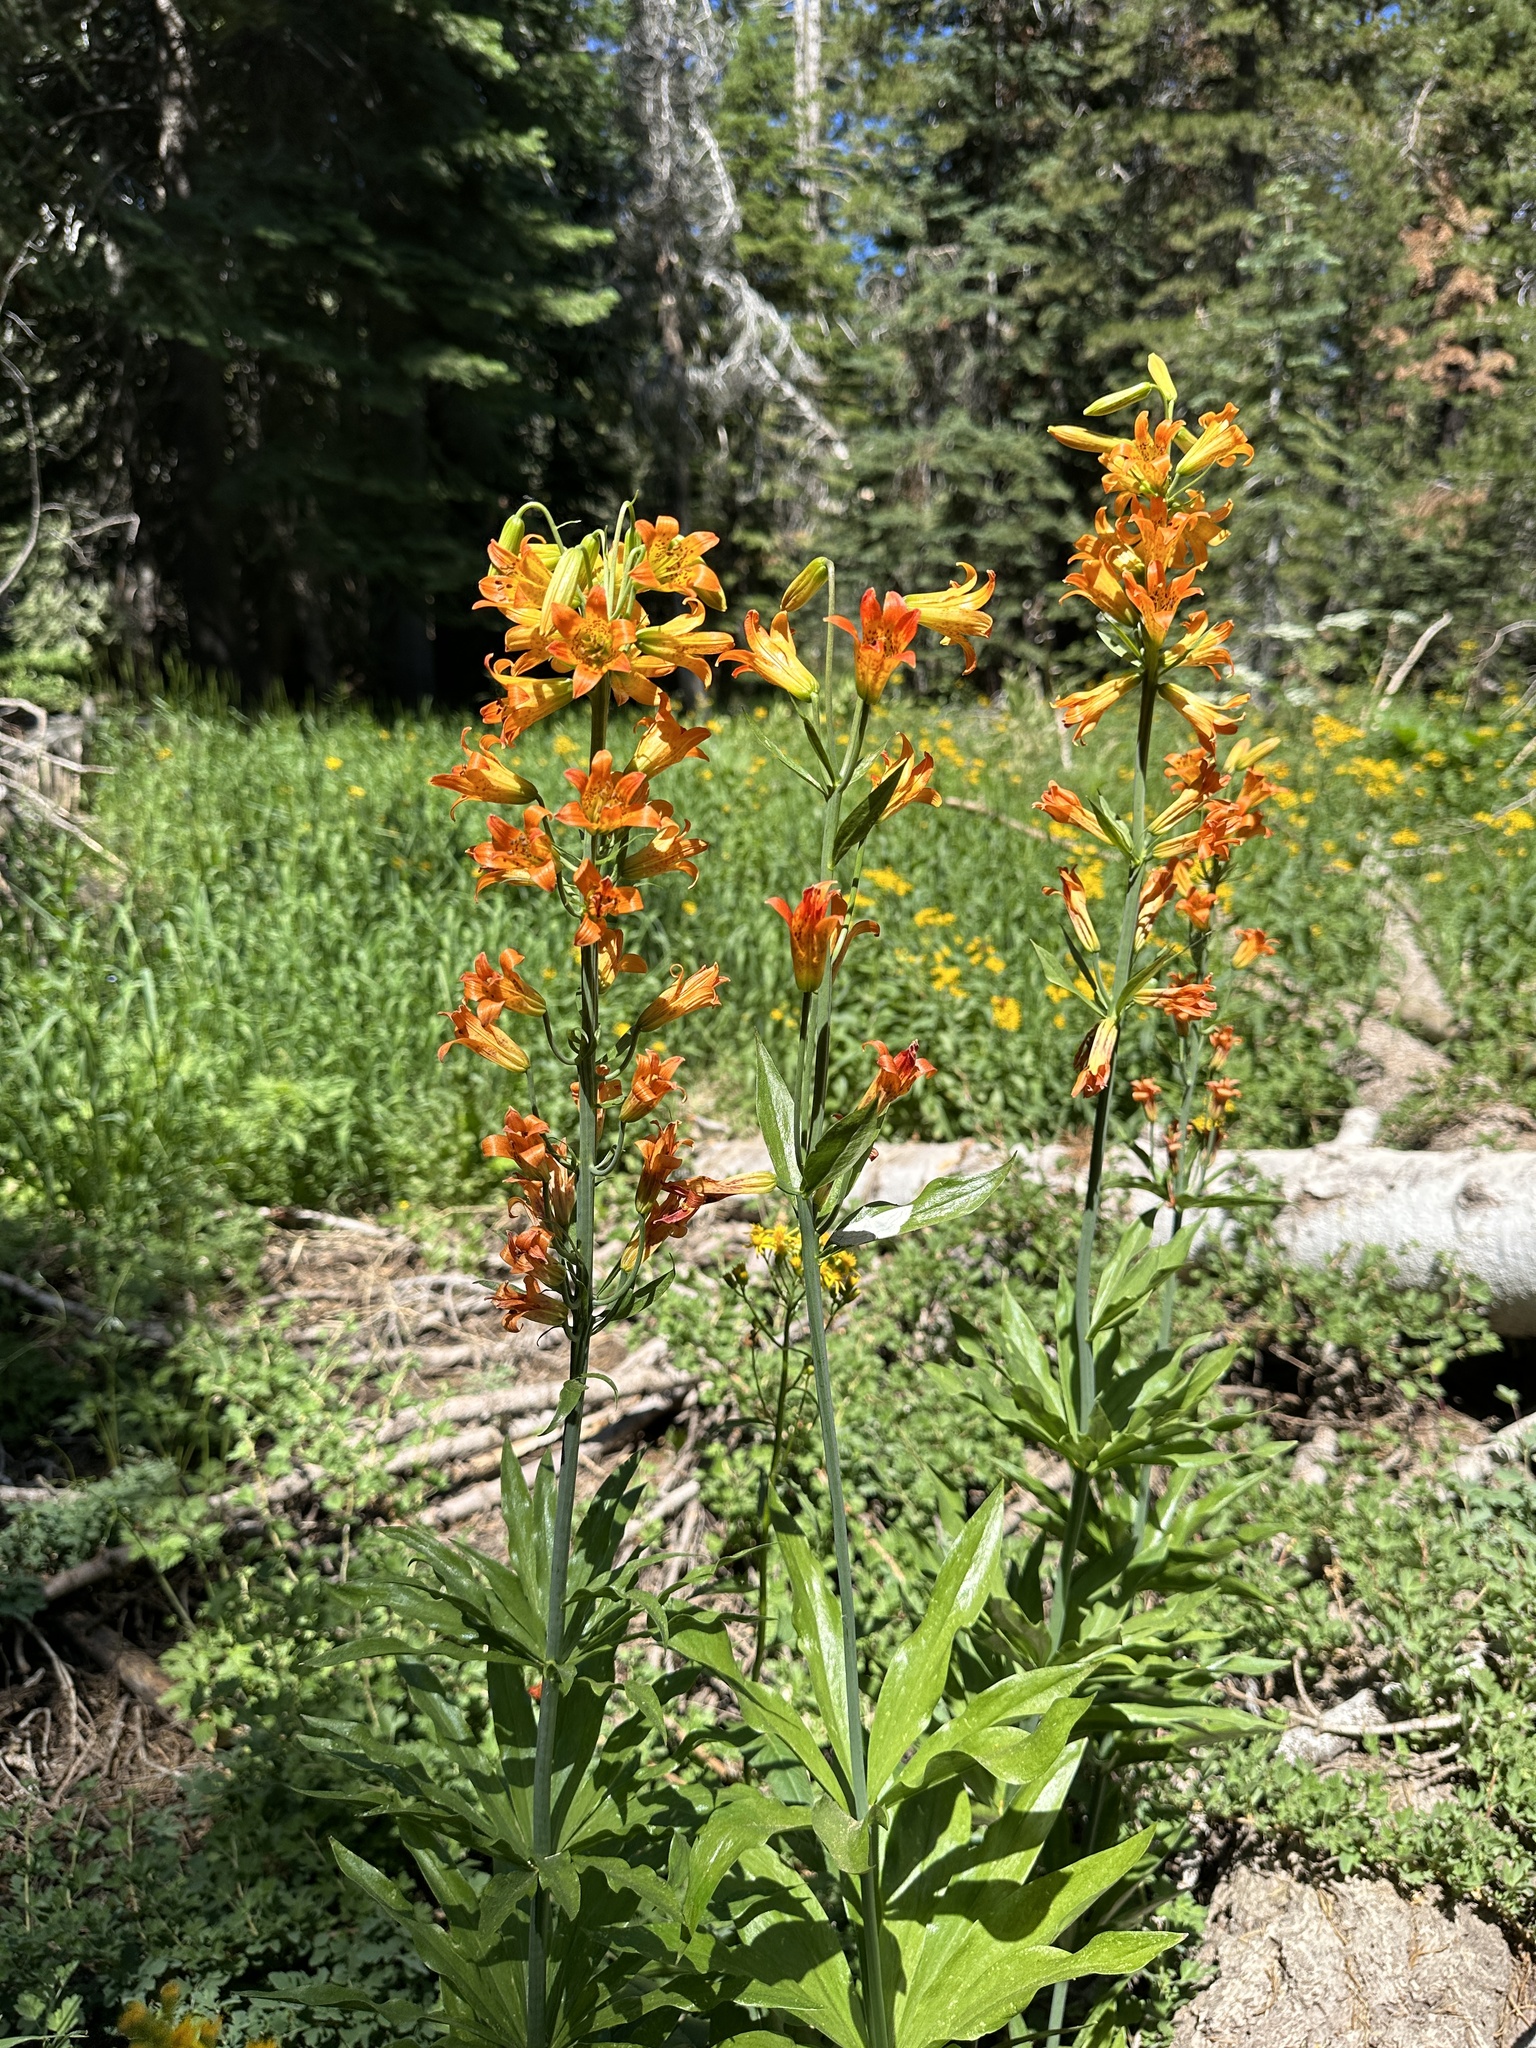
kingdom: Plantae
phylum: Tracheophyta
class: Liliopsida
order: Liliales
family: Liliaceae
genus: Lilium
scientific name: Lilium parvum
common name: Alpine lily
